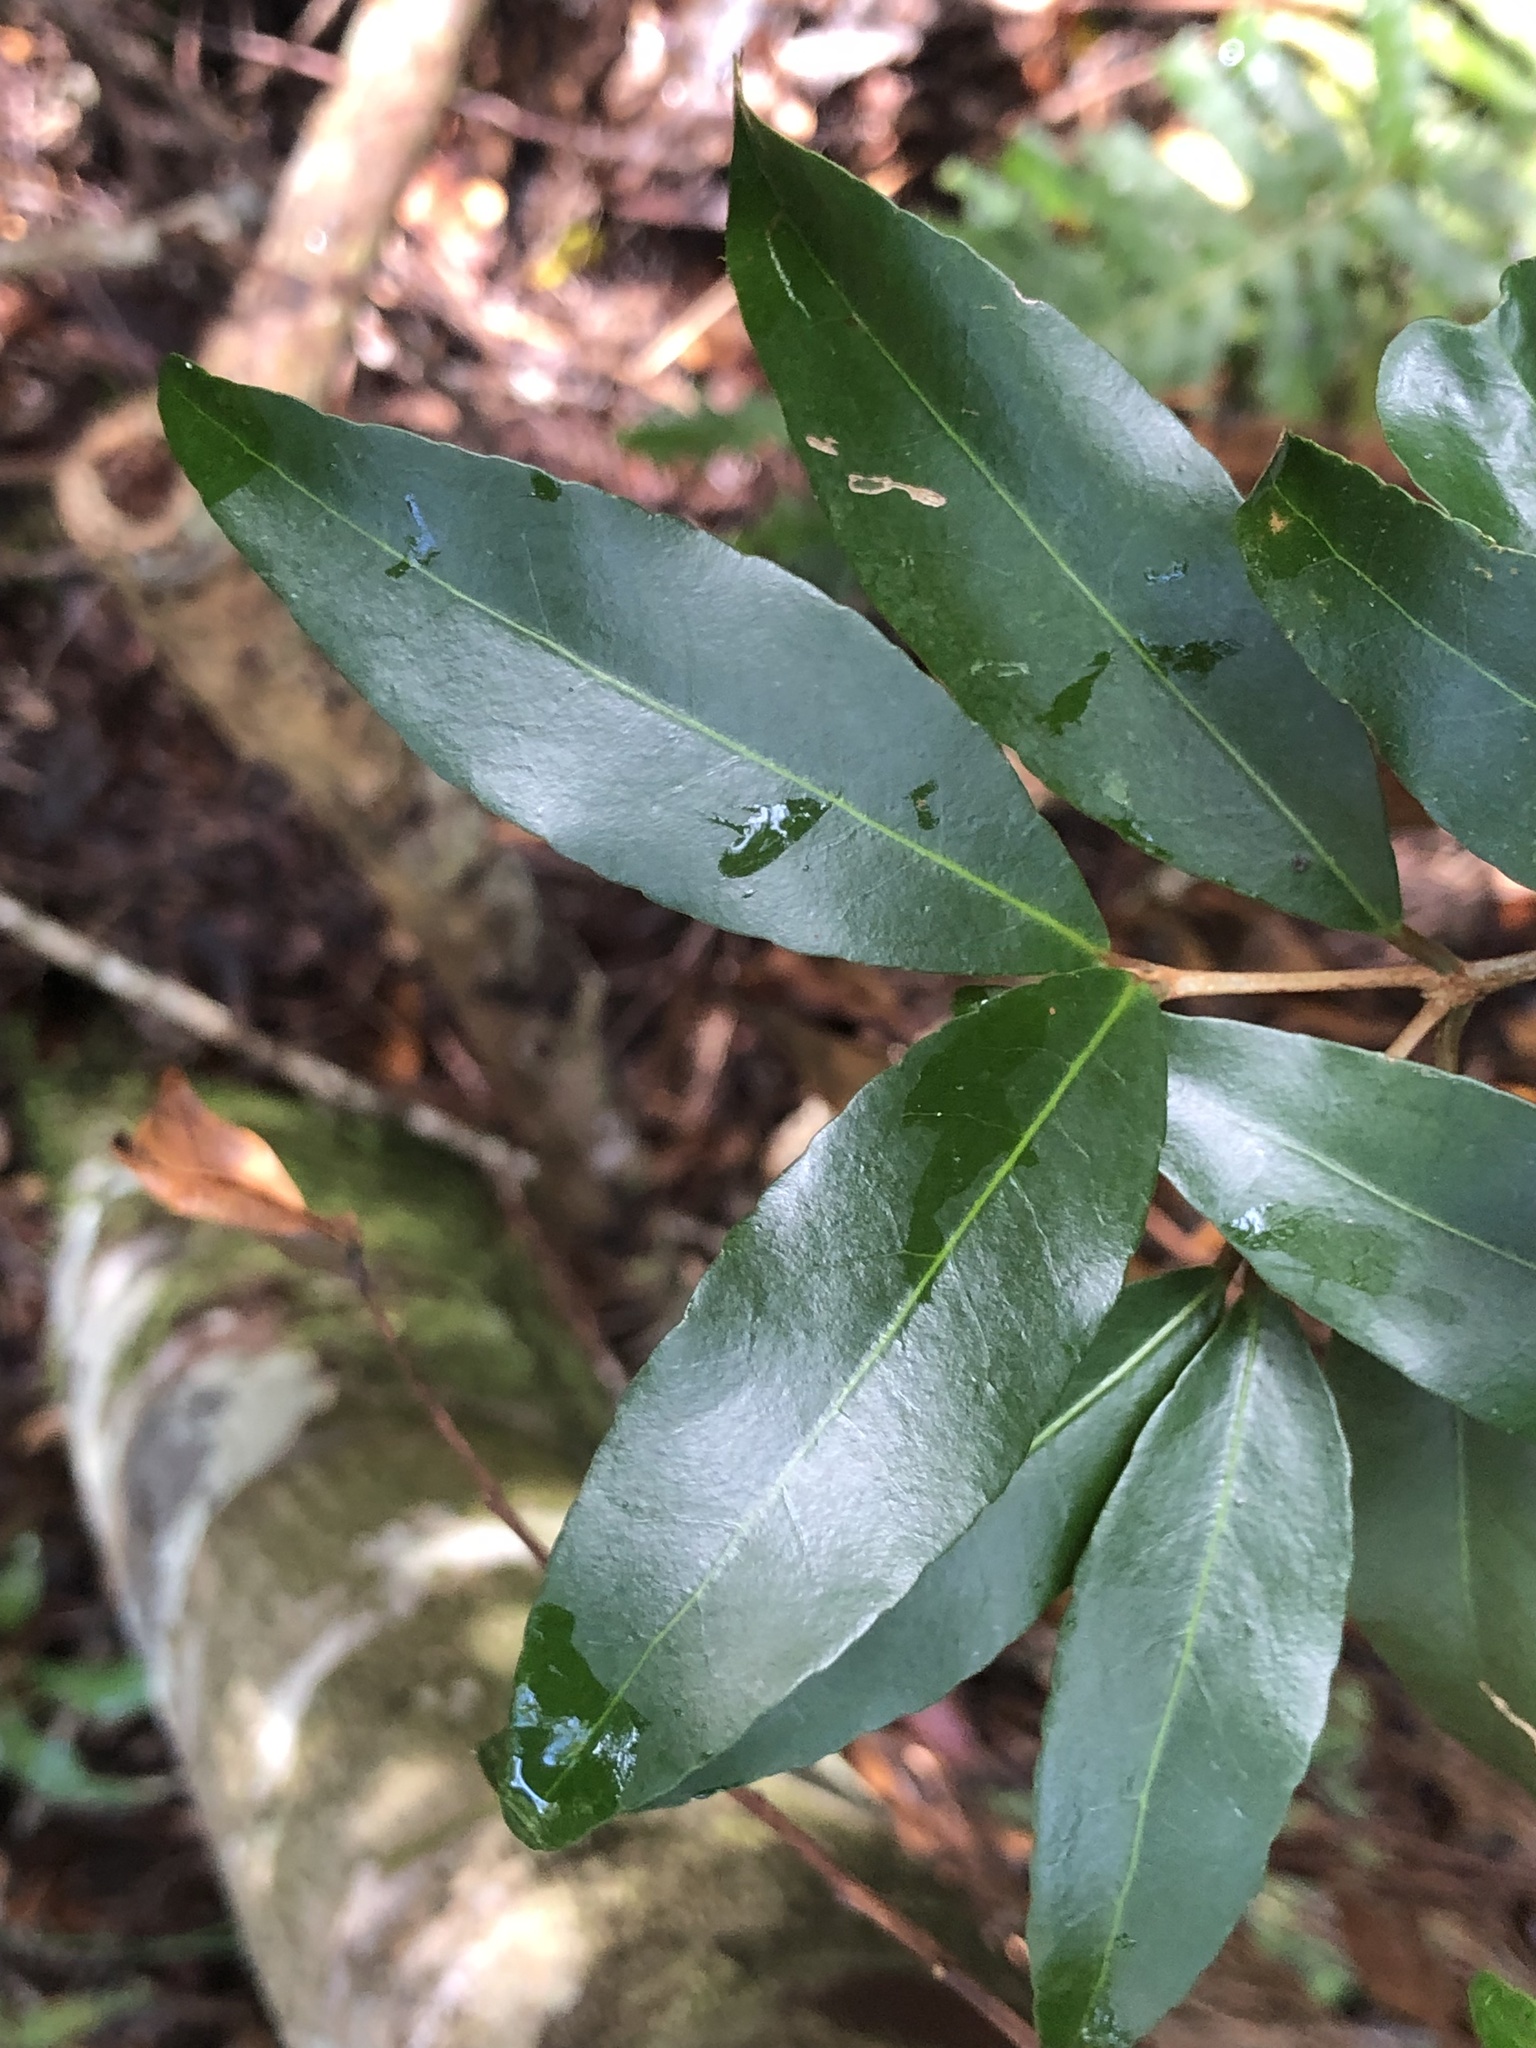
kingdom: Plantae
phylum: Tracheophyta
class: Magnoliopsida
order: Malpighiales
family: Picrodendraceae
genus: Austrobuxus
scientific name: Austrobuxus swainii
